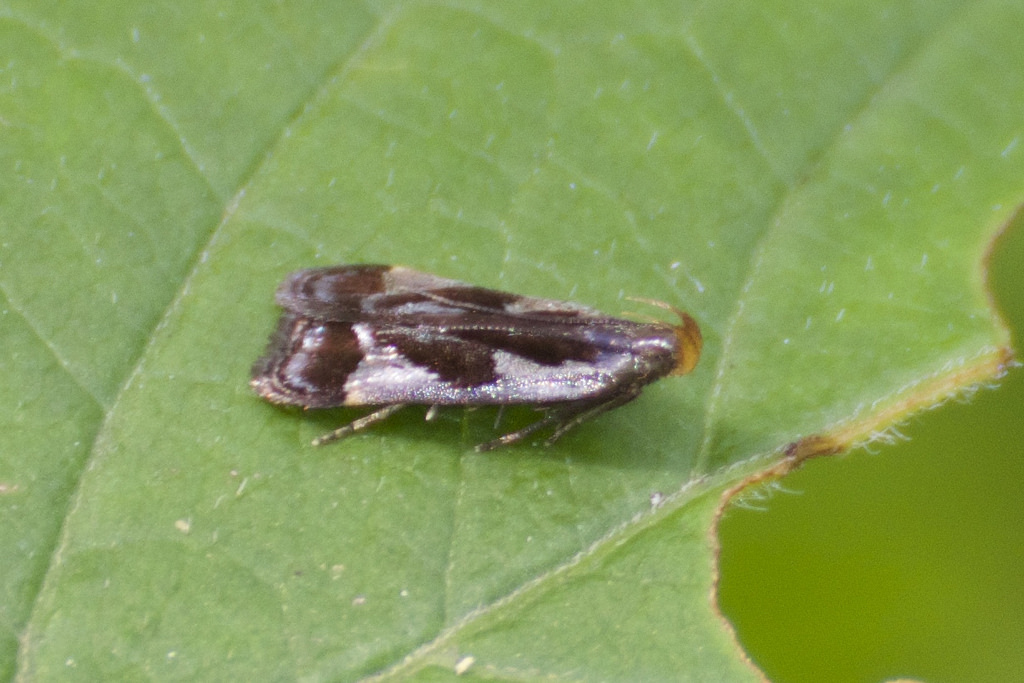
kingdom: Animalia
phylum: Arthropoda
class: Insecta
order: Lepidoptera
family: Gelechiidae
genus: Dichomeris
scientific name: Dichomeris ochripalpella
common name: Shining dichomeris moth
